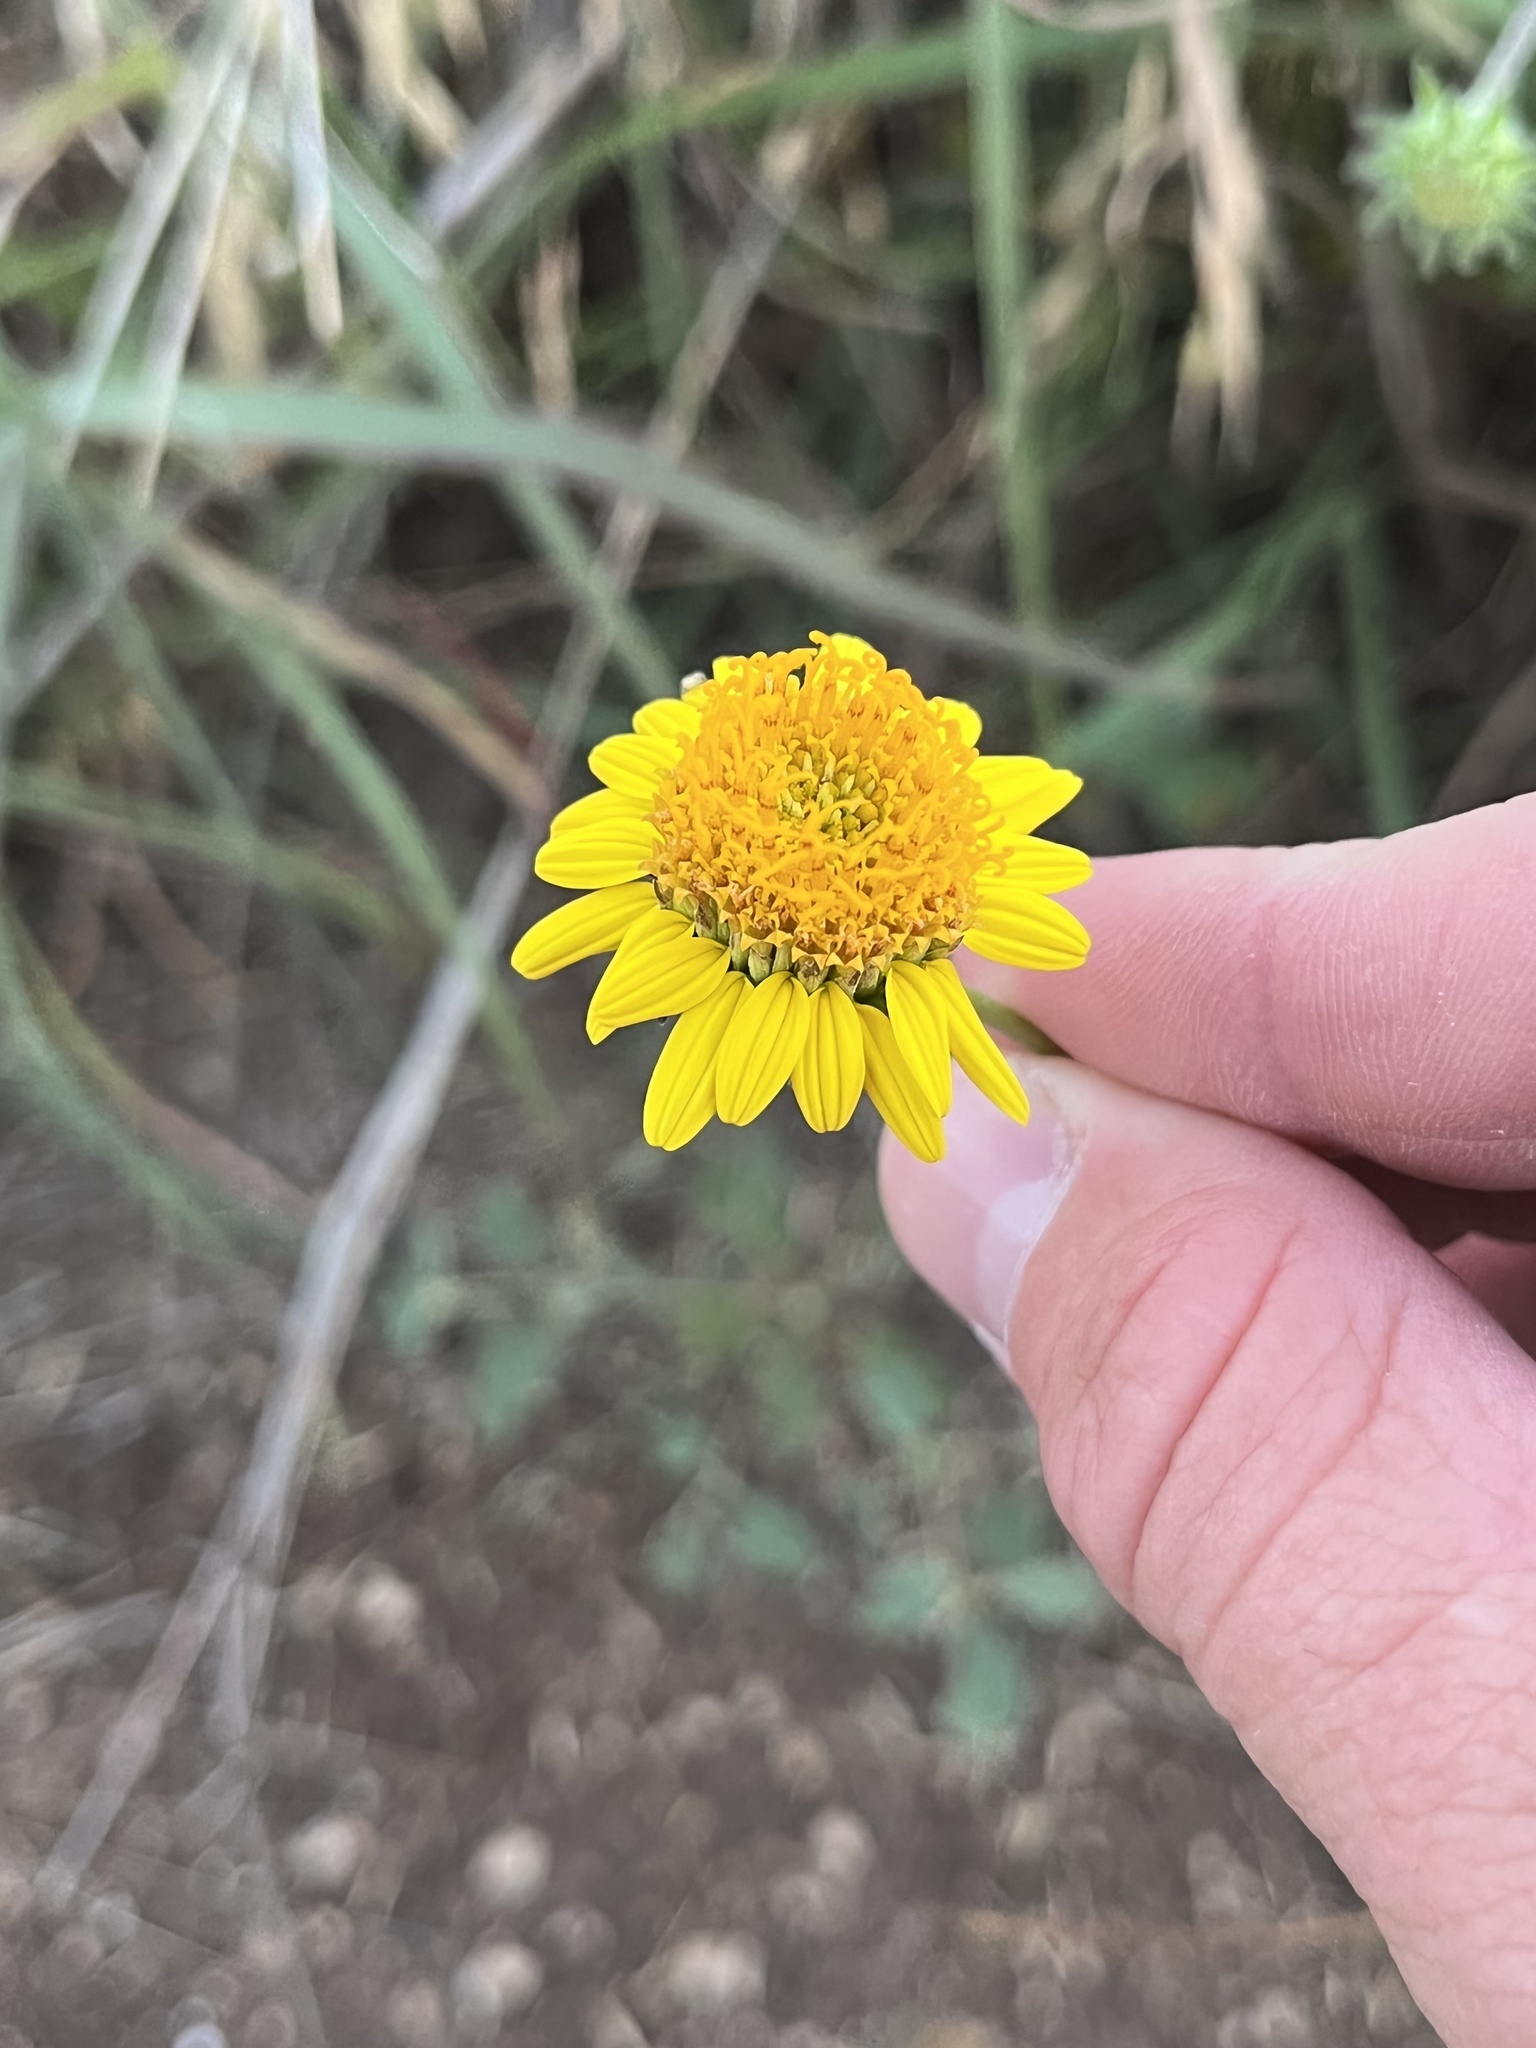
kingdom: Plantae
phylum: Tracheophyta
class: Magnoliopsida
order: Asterales
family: Asteraceae
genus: Simsia
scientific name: Simsia calva
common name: Awnless bush-sunflower
